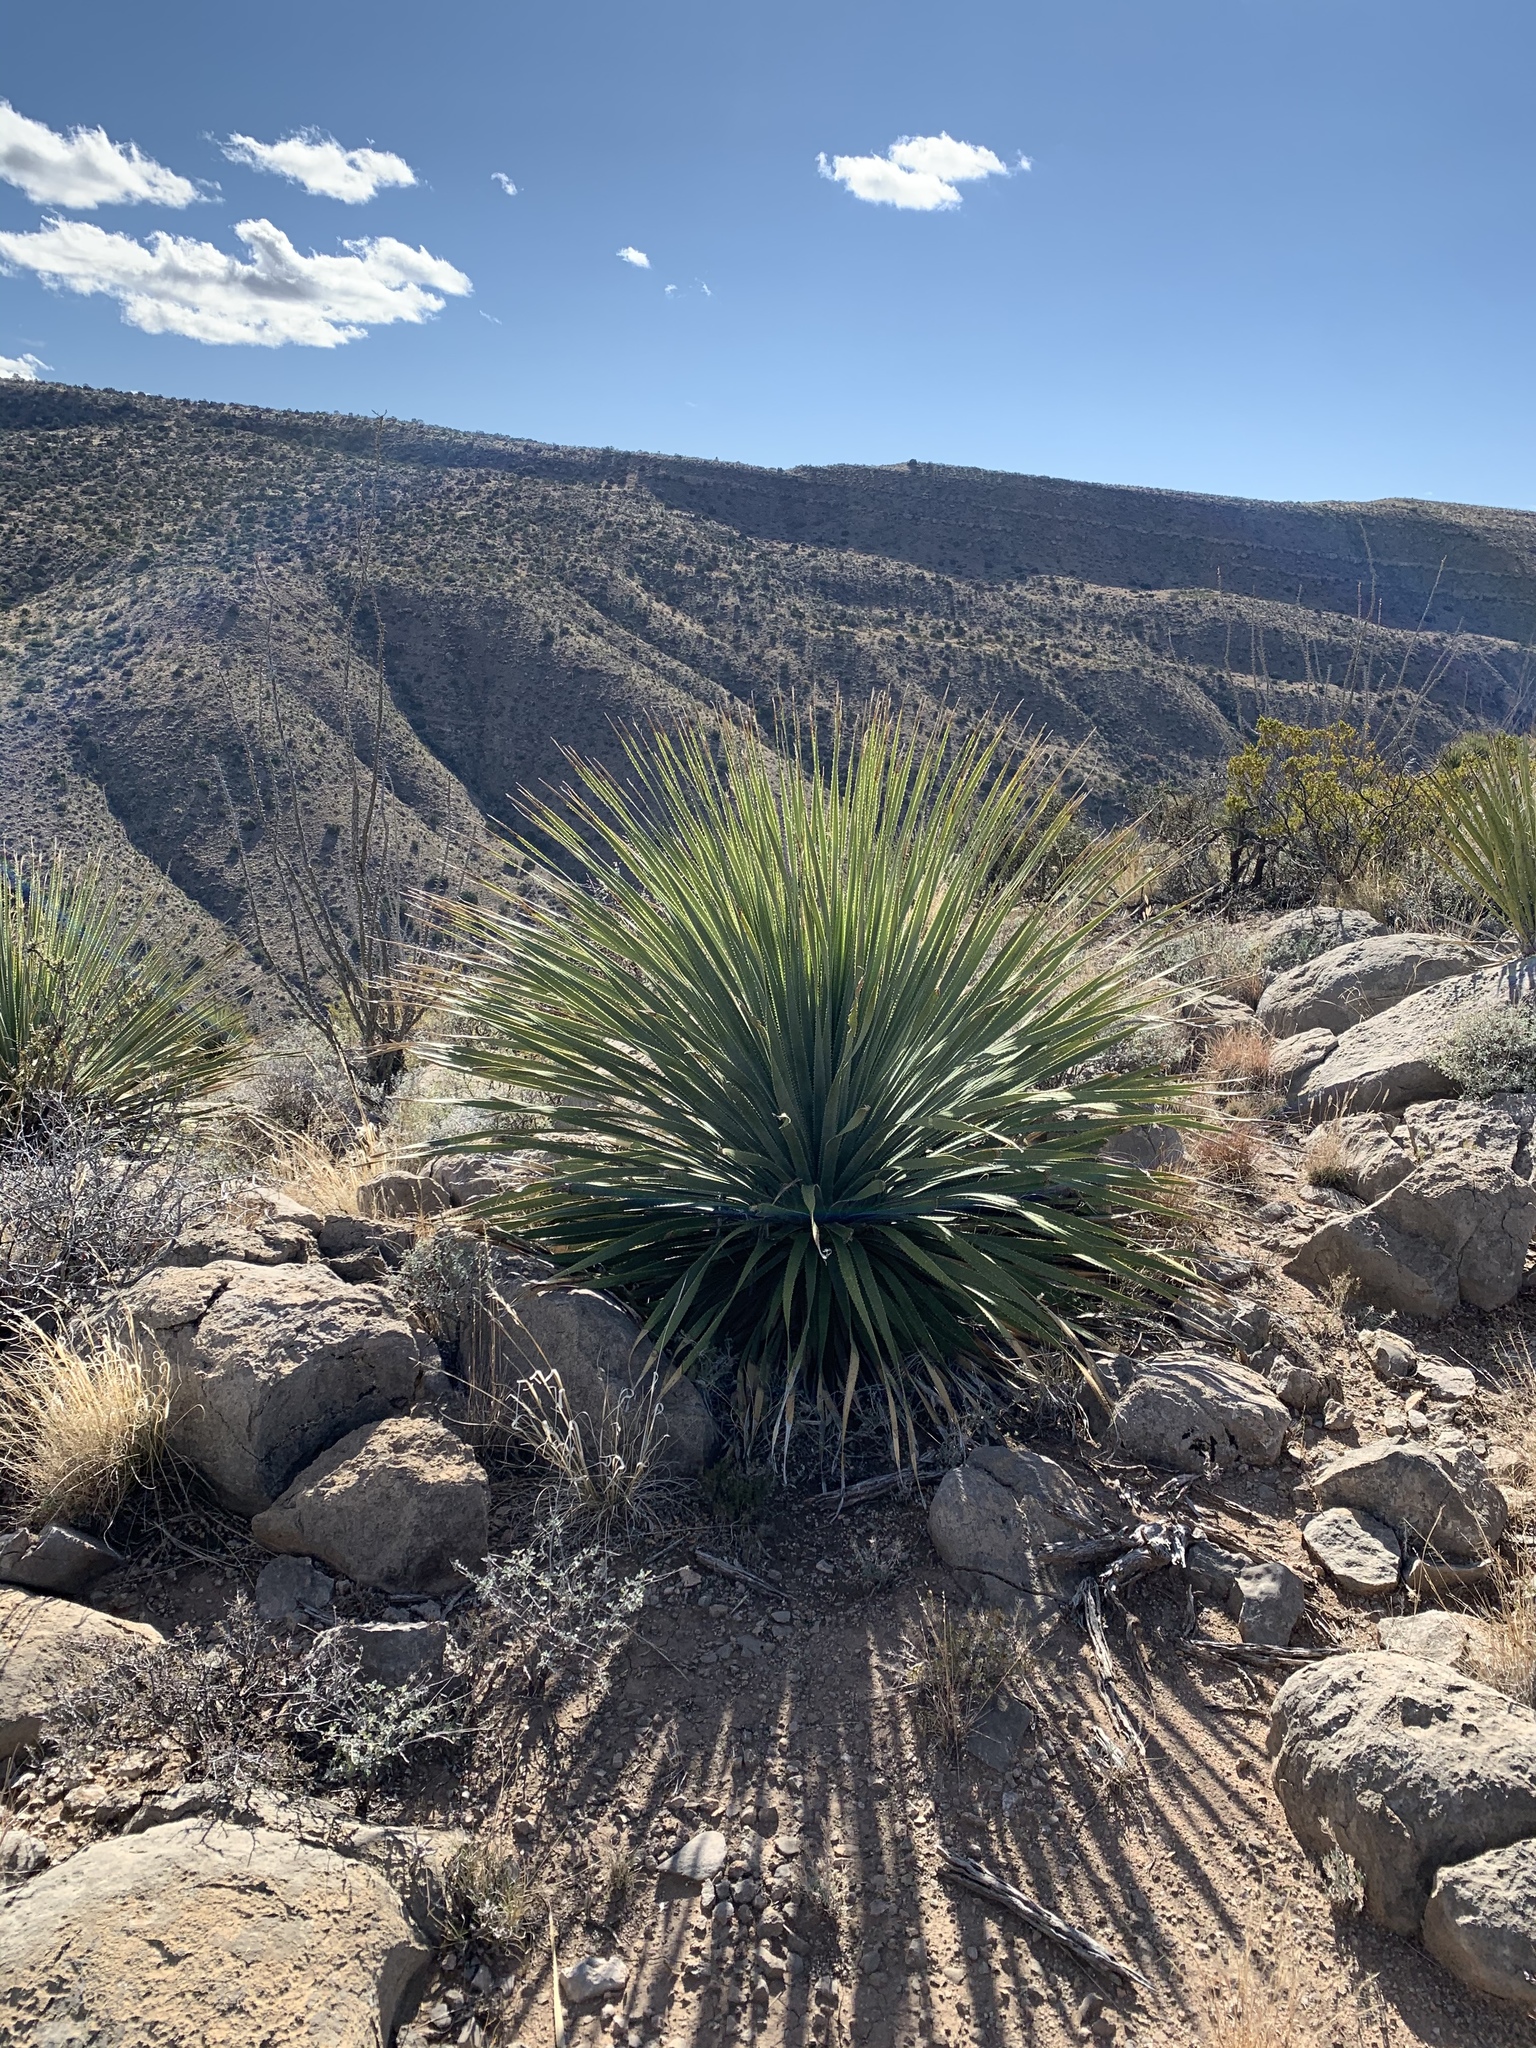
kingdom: Plantae
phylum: Tracheophyta
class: Liliopsida
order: Asparagales
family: Asparagaceae
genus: Dasylirion
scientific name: Dasylirion wheeleri
